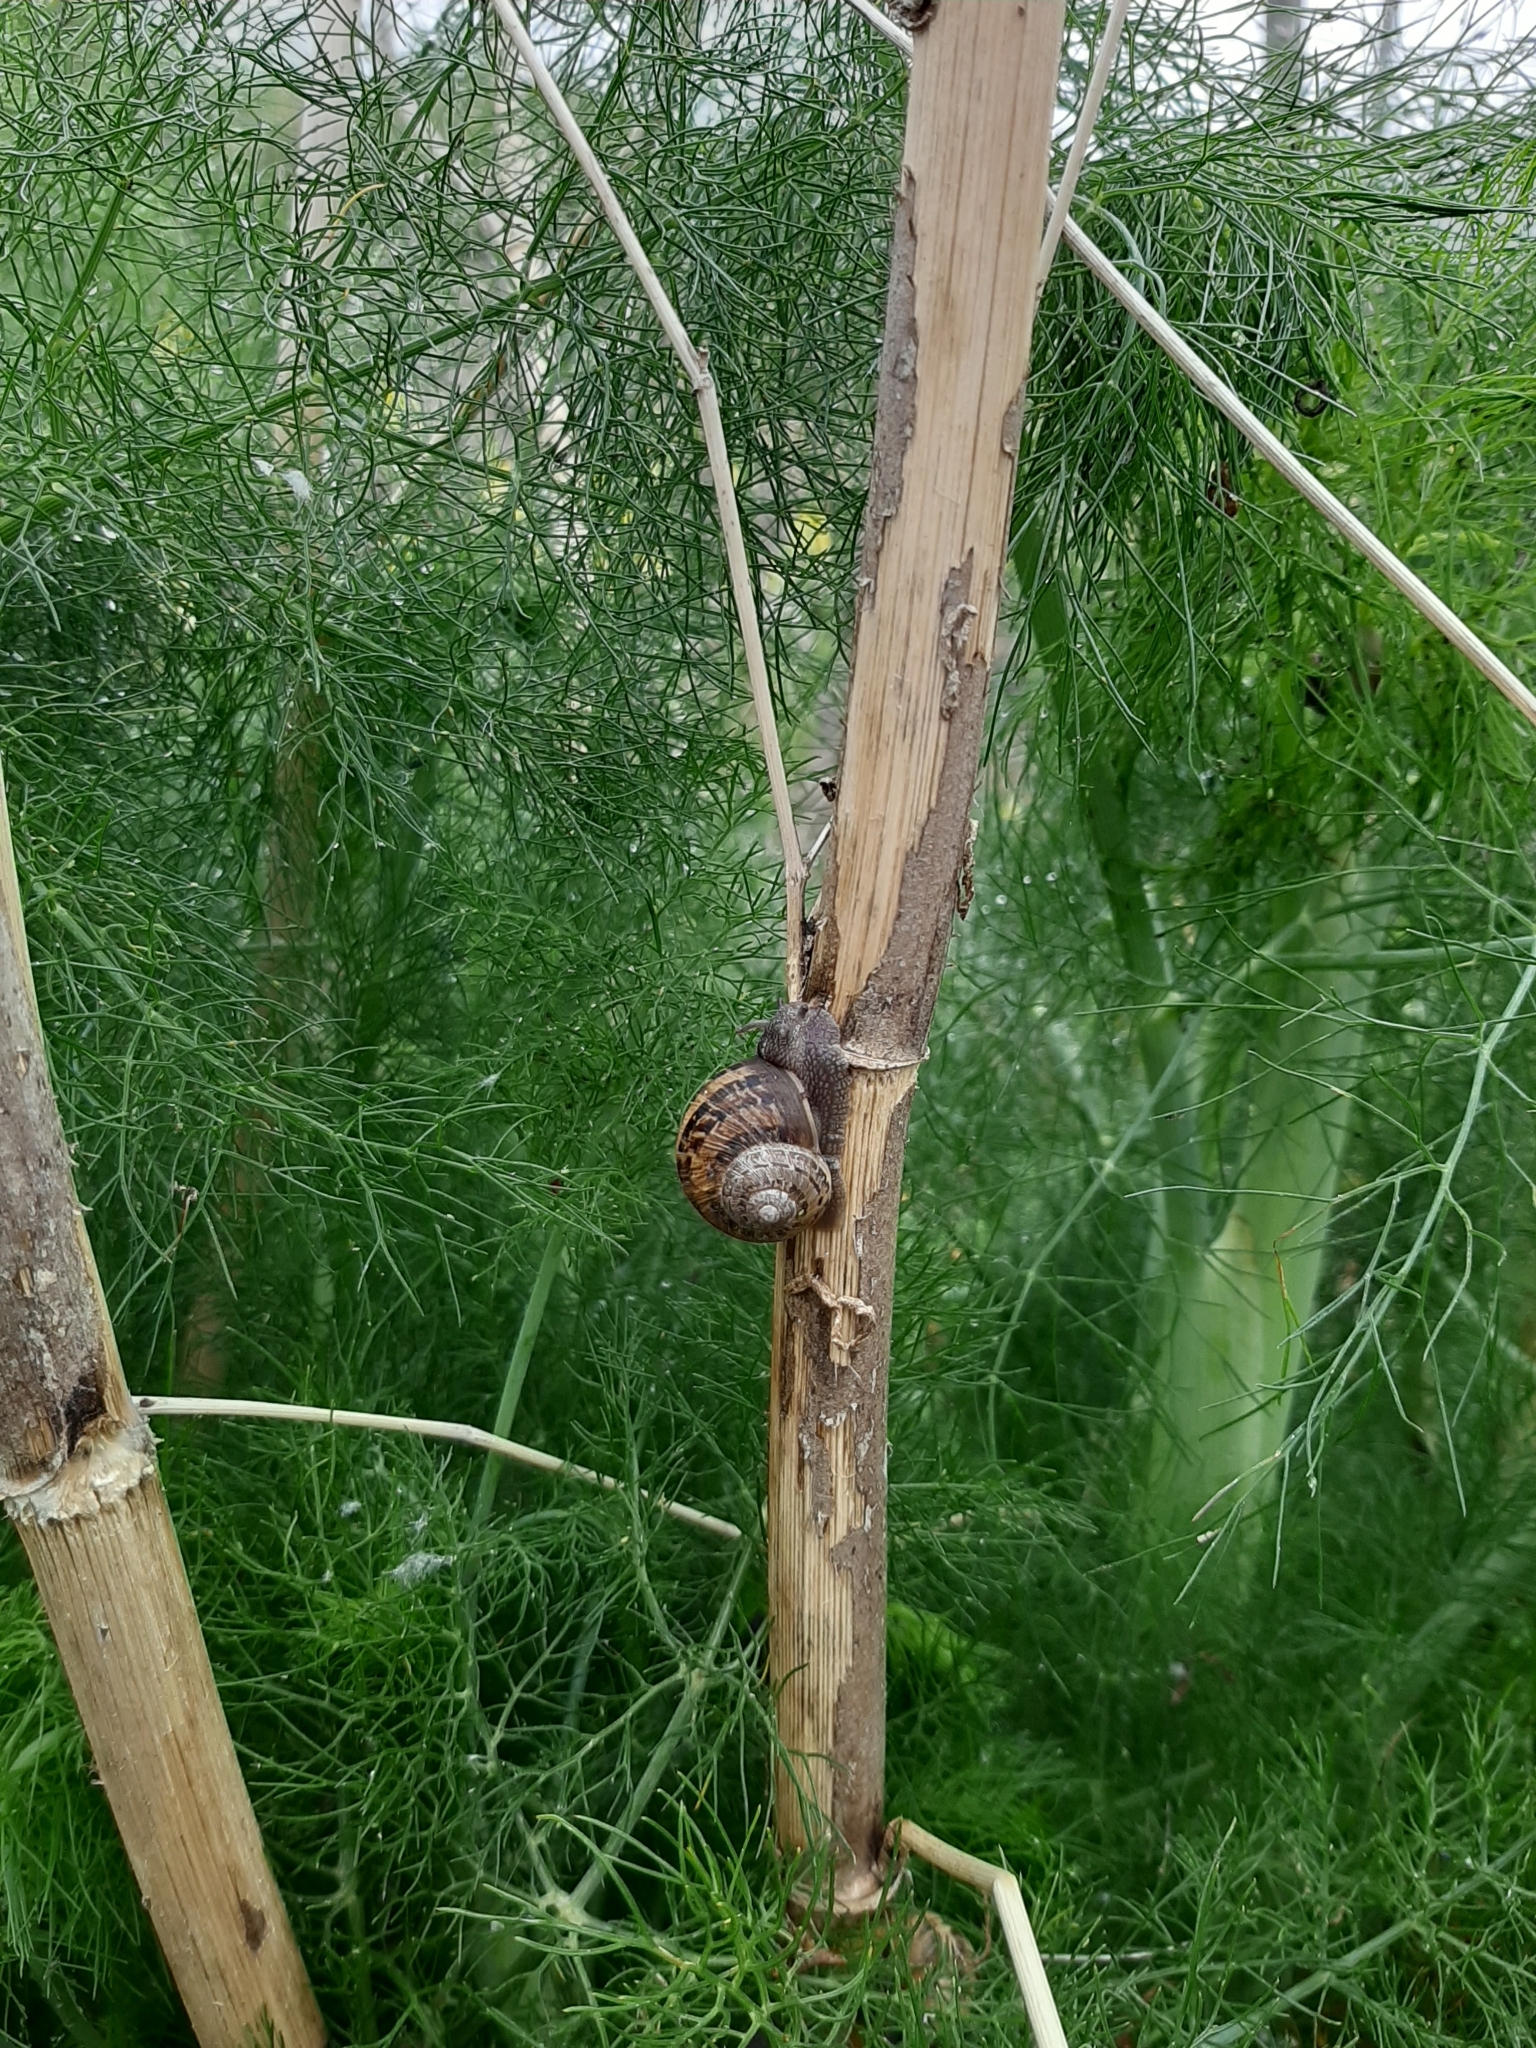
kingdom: Animalia
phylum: Mollusca
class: Gastropoda
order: Stylommatophora
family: Helicidae
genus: Cornu
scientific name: Cornu aspersum
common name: Brown garden snail
